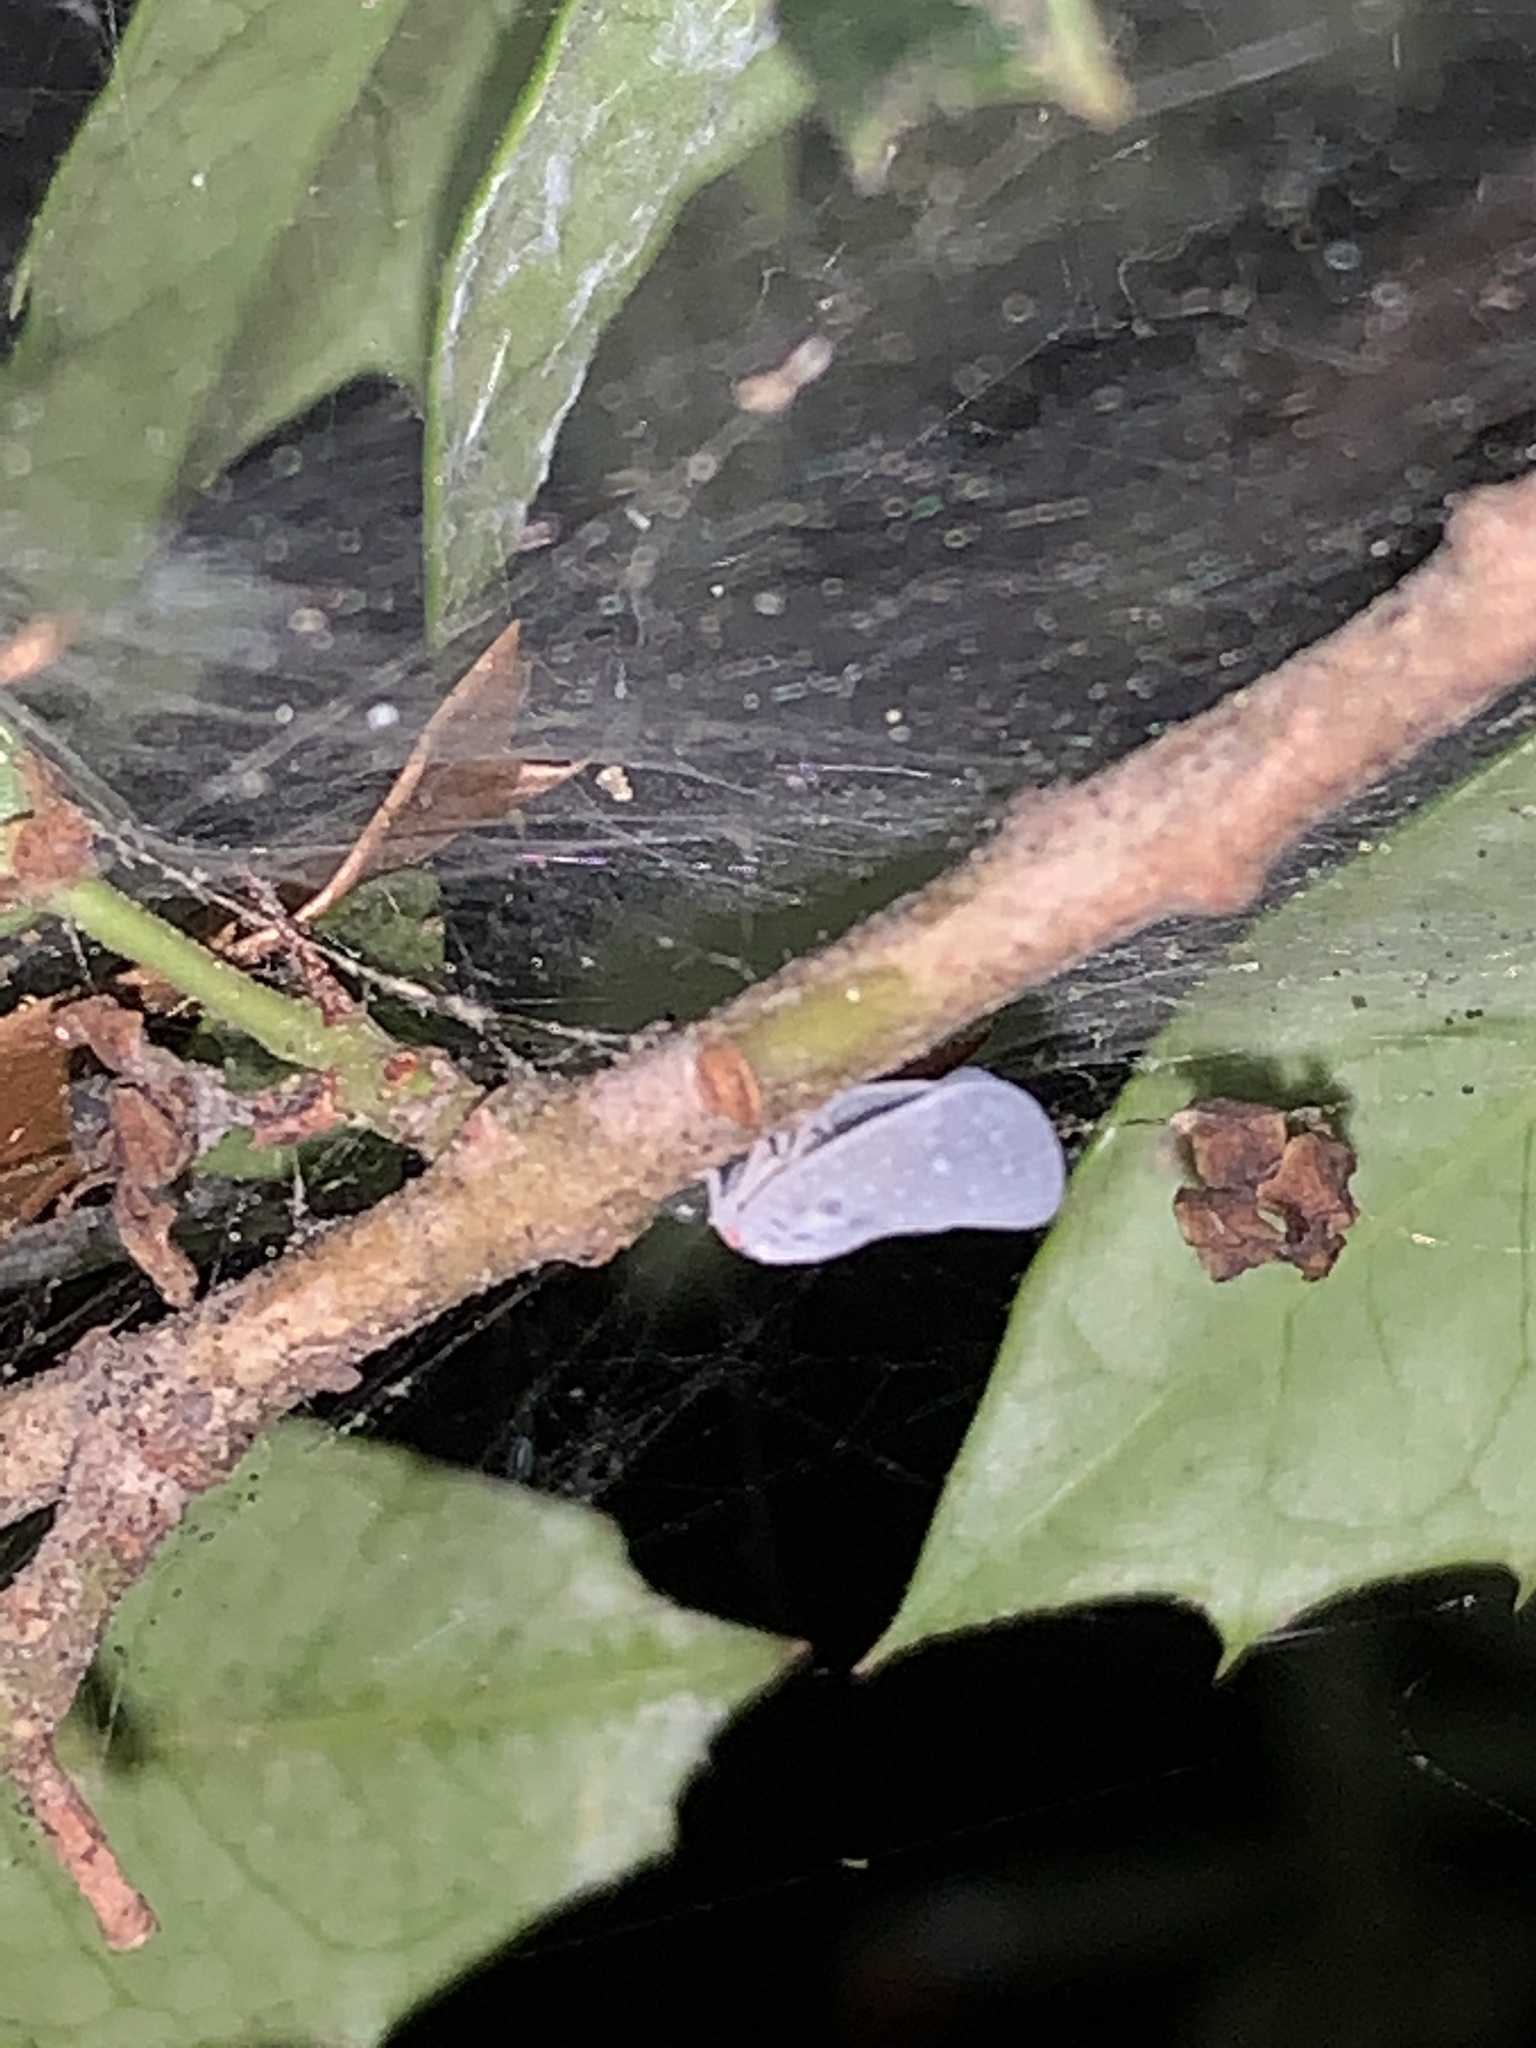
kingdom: Animalia
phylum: Arthropoda
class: Insecta
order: Hemiptera
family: Flatidae
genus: Metcalfa
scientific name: Metcalfa pruinosa
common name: Citrus flatid planthopper
